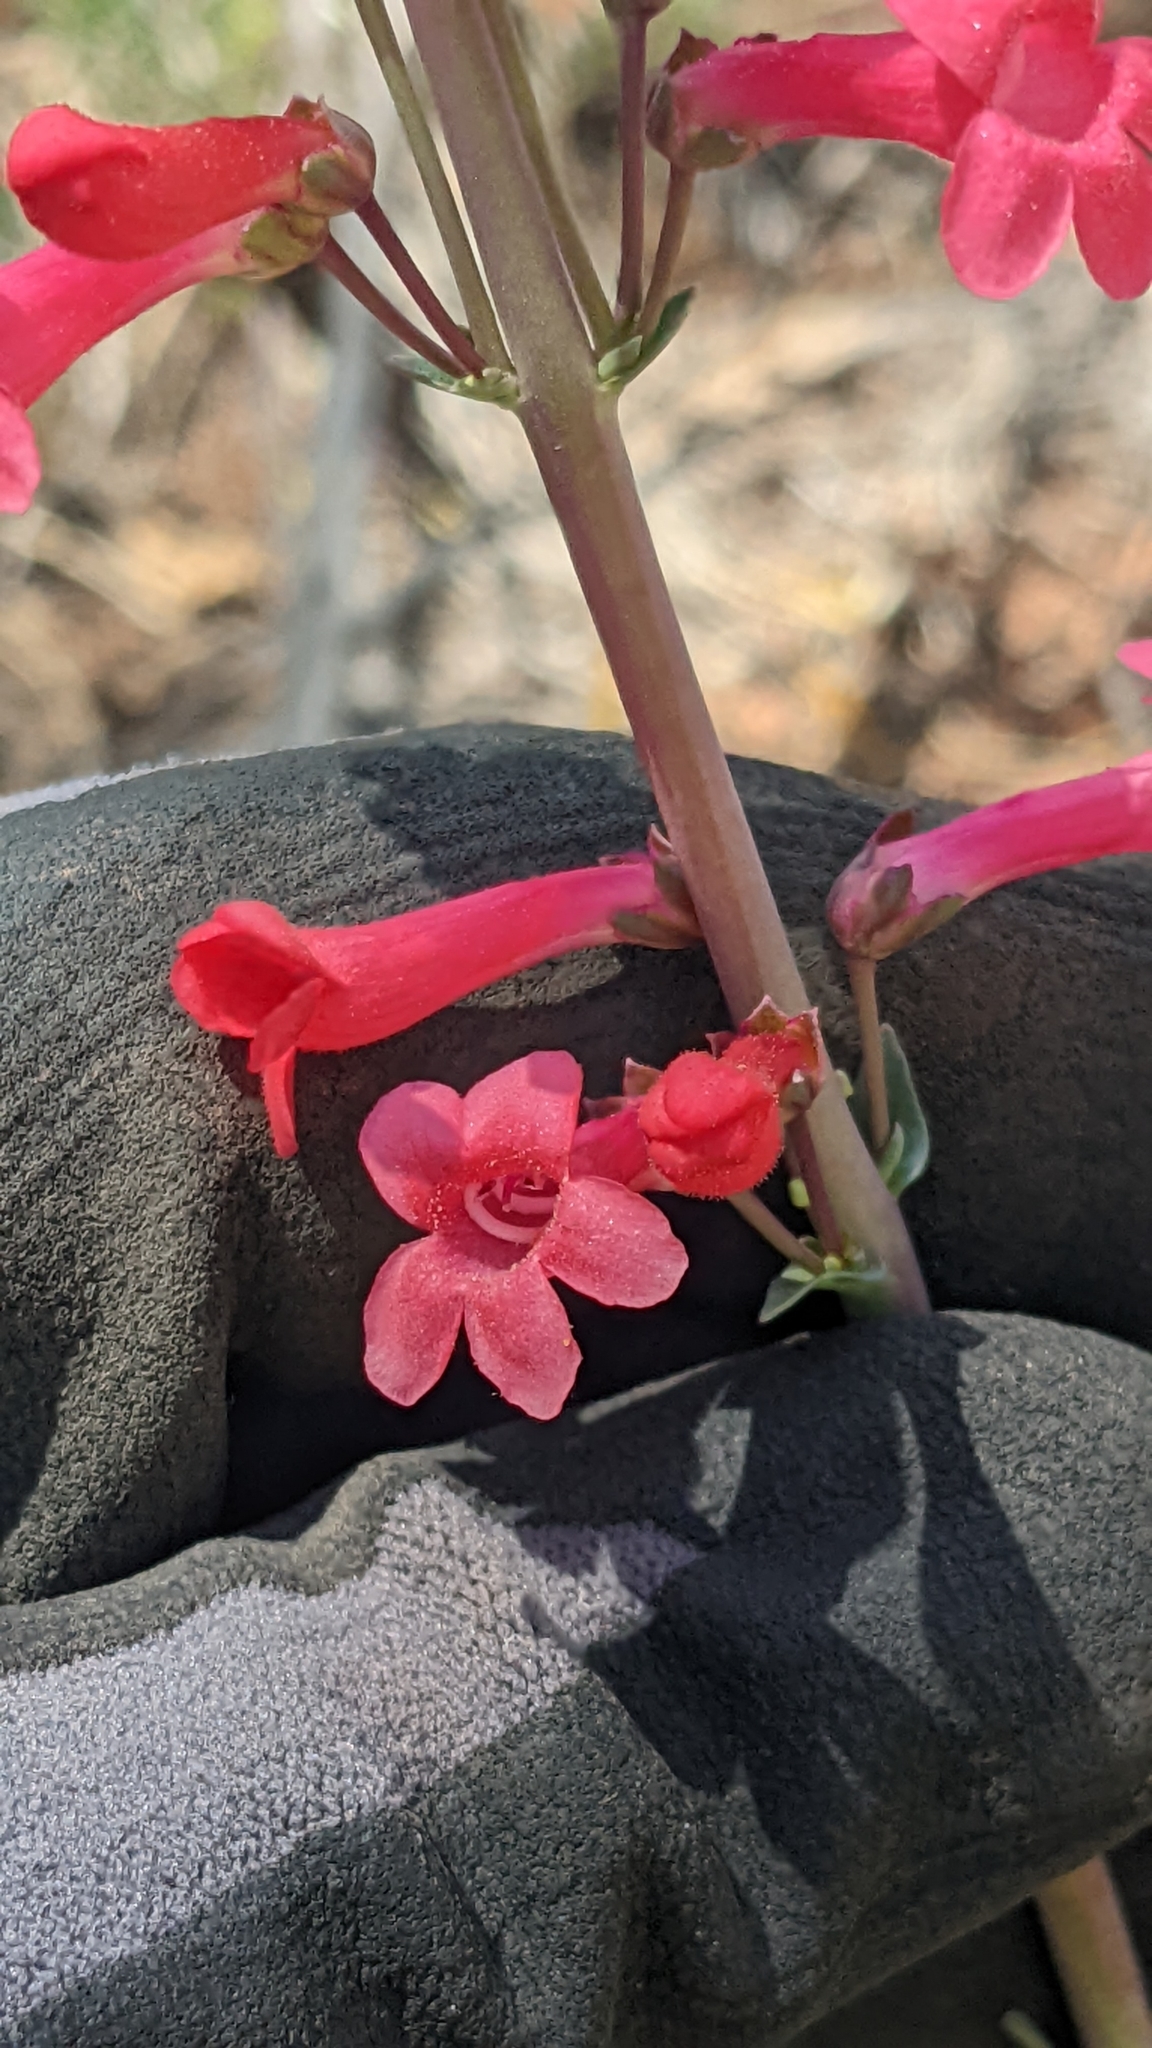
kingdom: Plantae
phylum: Tracheophyta
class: Magnoliopsida
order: Lamiales
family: Plantaginaceae
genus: Penstemon
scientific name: Penstemon confusus
